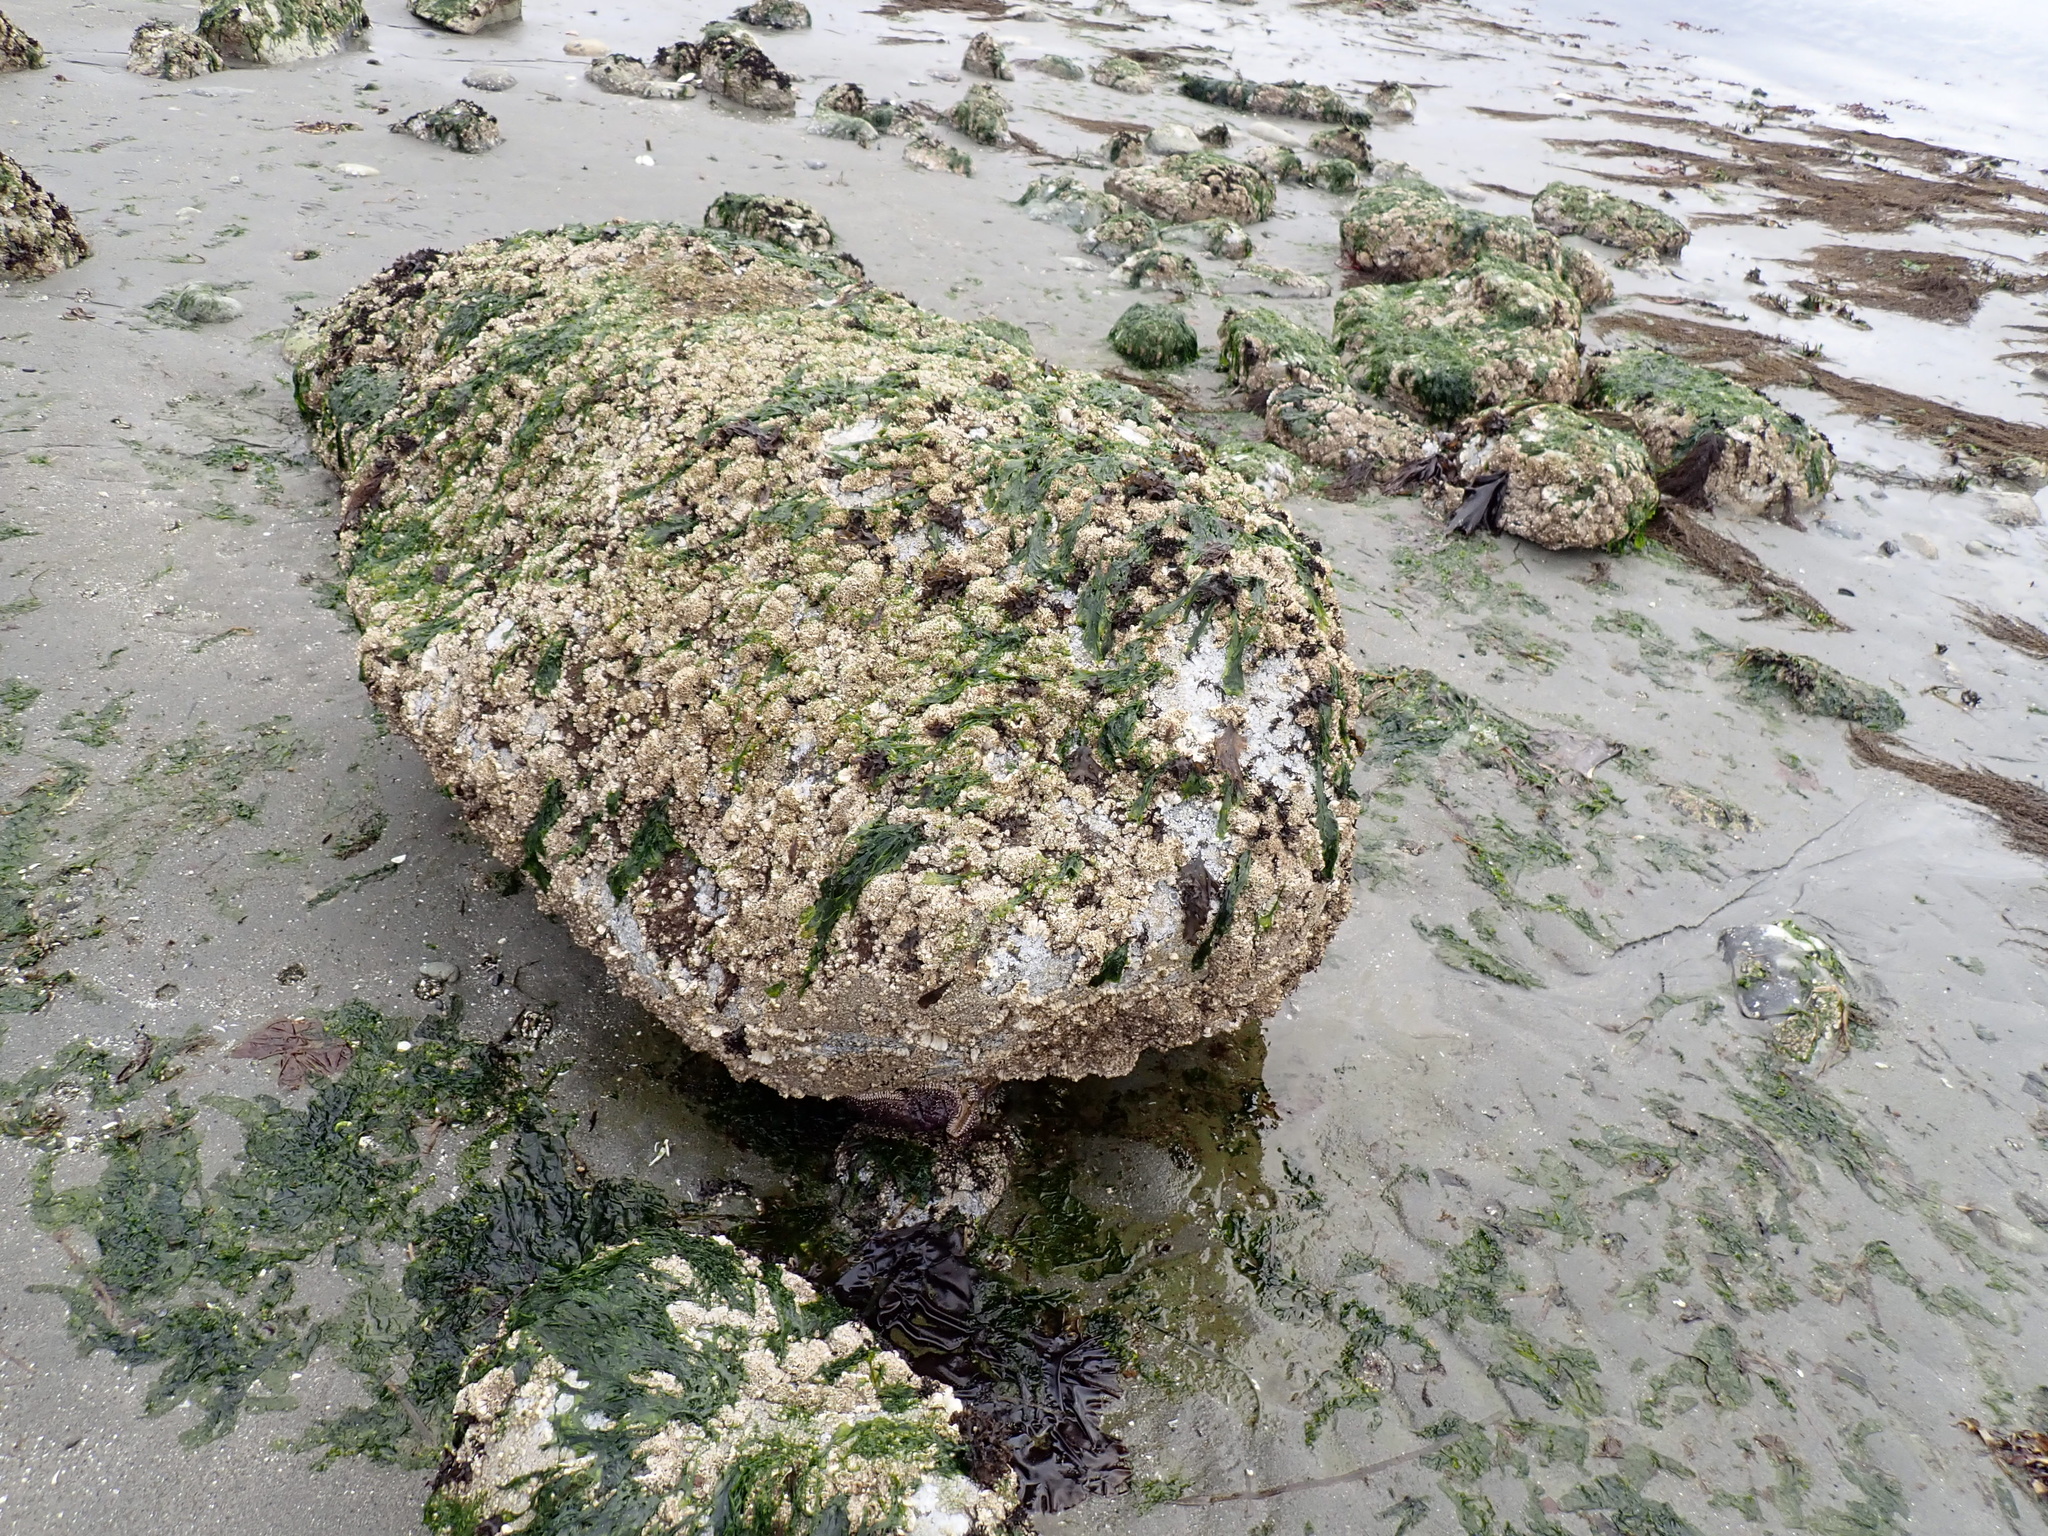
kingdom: Animalia
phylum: Echinodermata
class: Asteroidea
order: Forcipulatida
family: Asteriidae
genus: Pisaster
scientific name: Pisaster ochraceus
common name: Ochre stars
